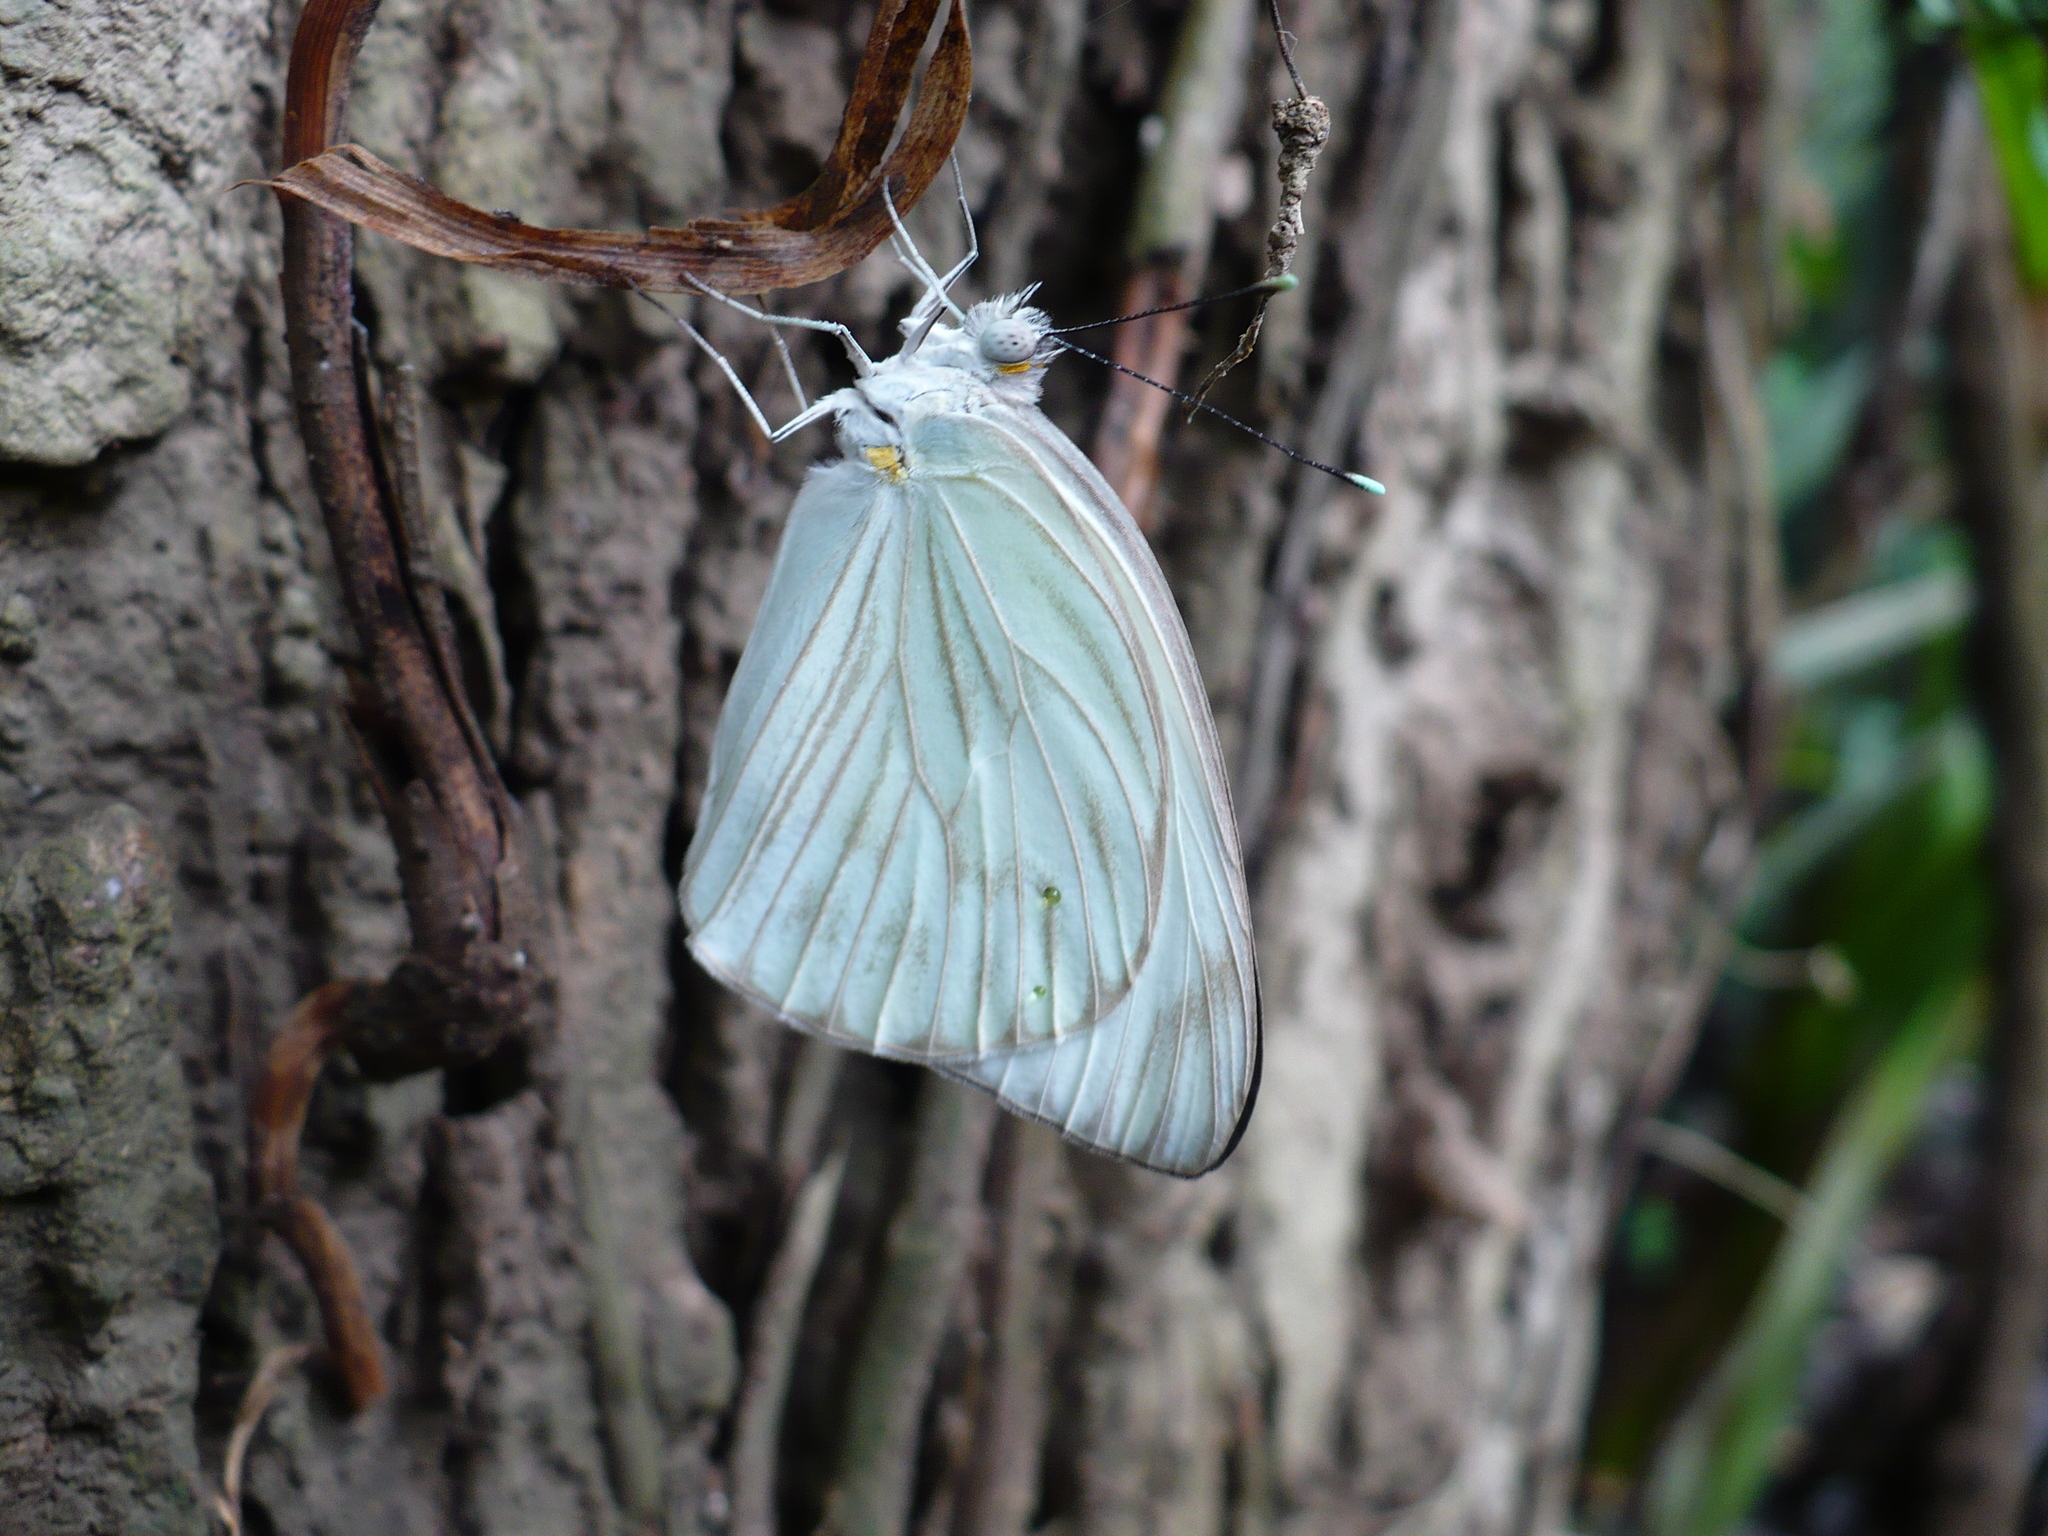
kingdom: Animalia
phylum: Arthropoda
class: Insecta
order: Lepidoptera
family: Pieridae
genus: Ascia
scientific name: Ascia monuste
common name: Great southern white
